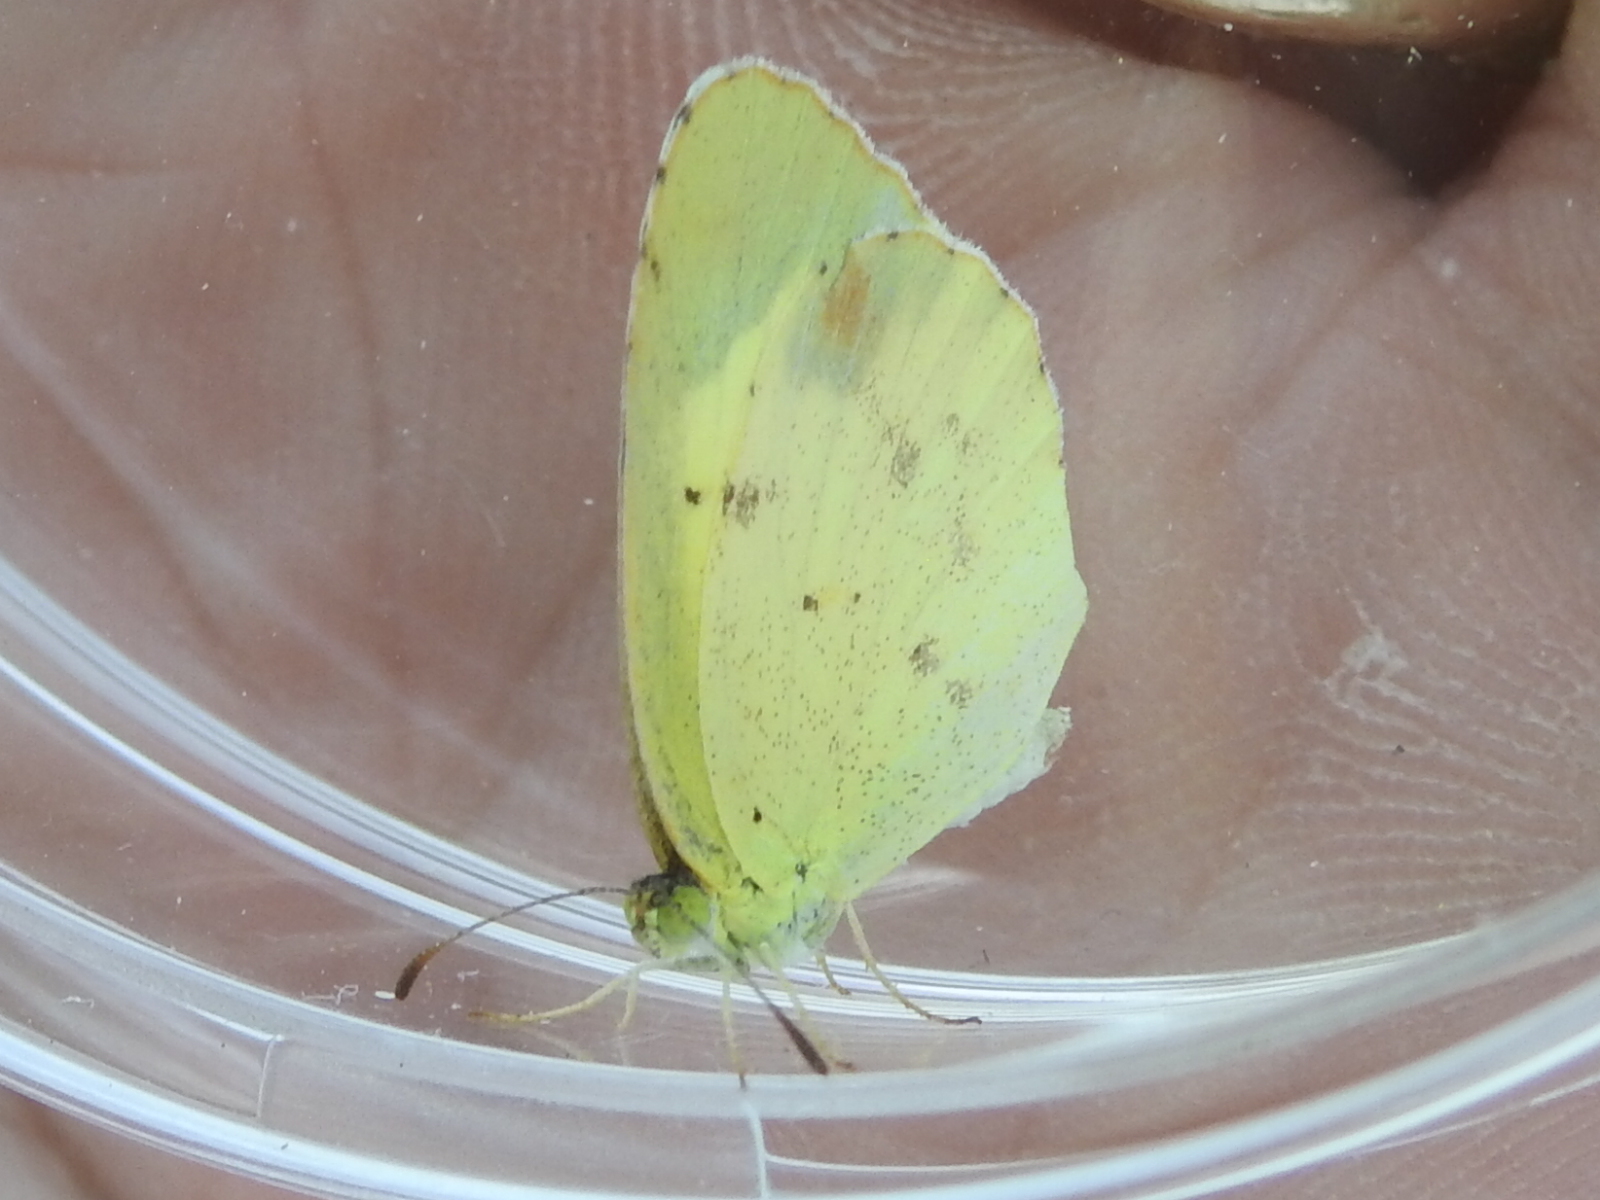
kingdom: Animalia
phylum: Arthropoda
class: Insecta
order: Lepidoptera
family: Pieridae
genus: Pyrisitia
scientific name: Pyrisitia lisa
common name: Little yellow
